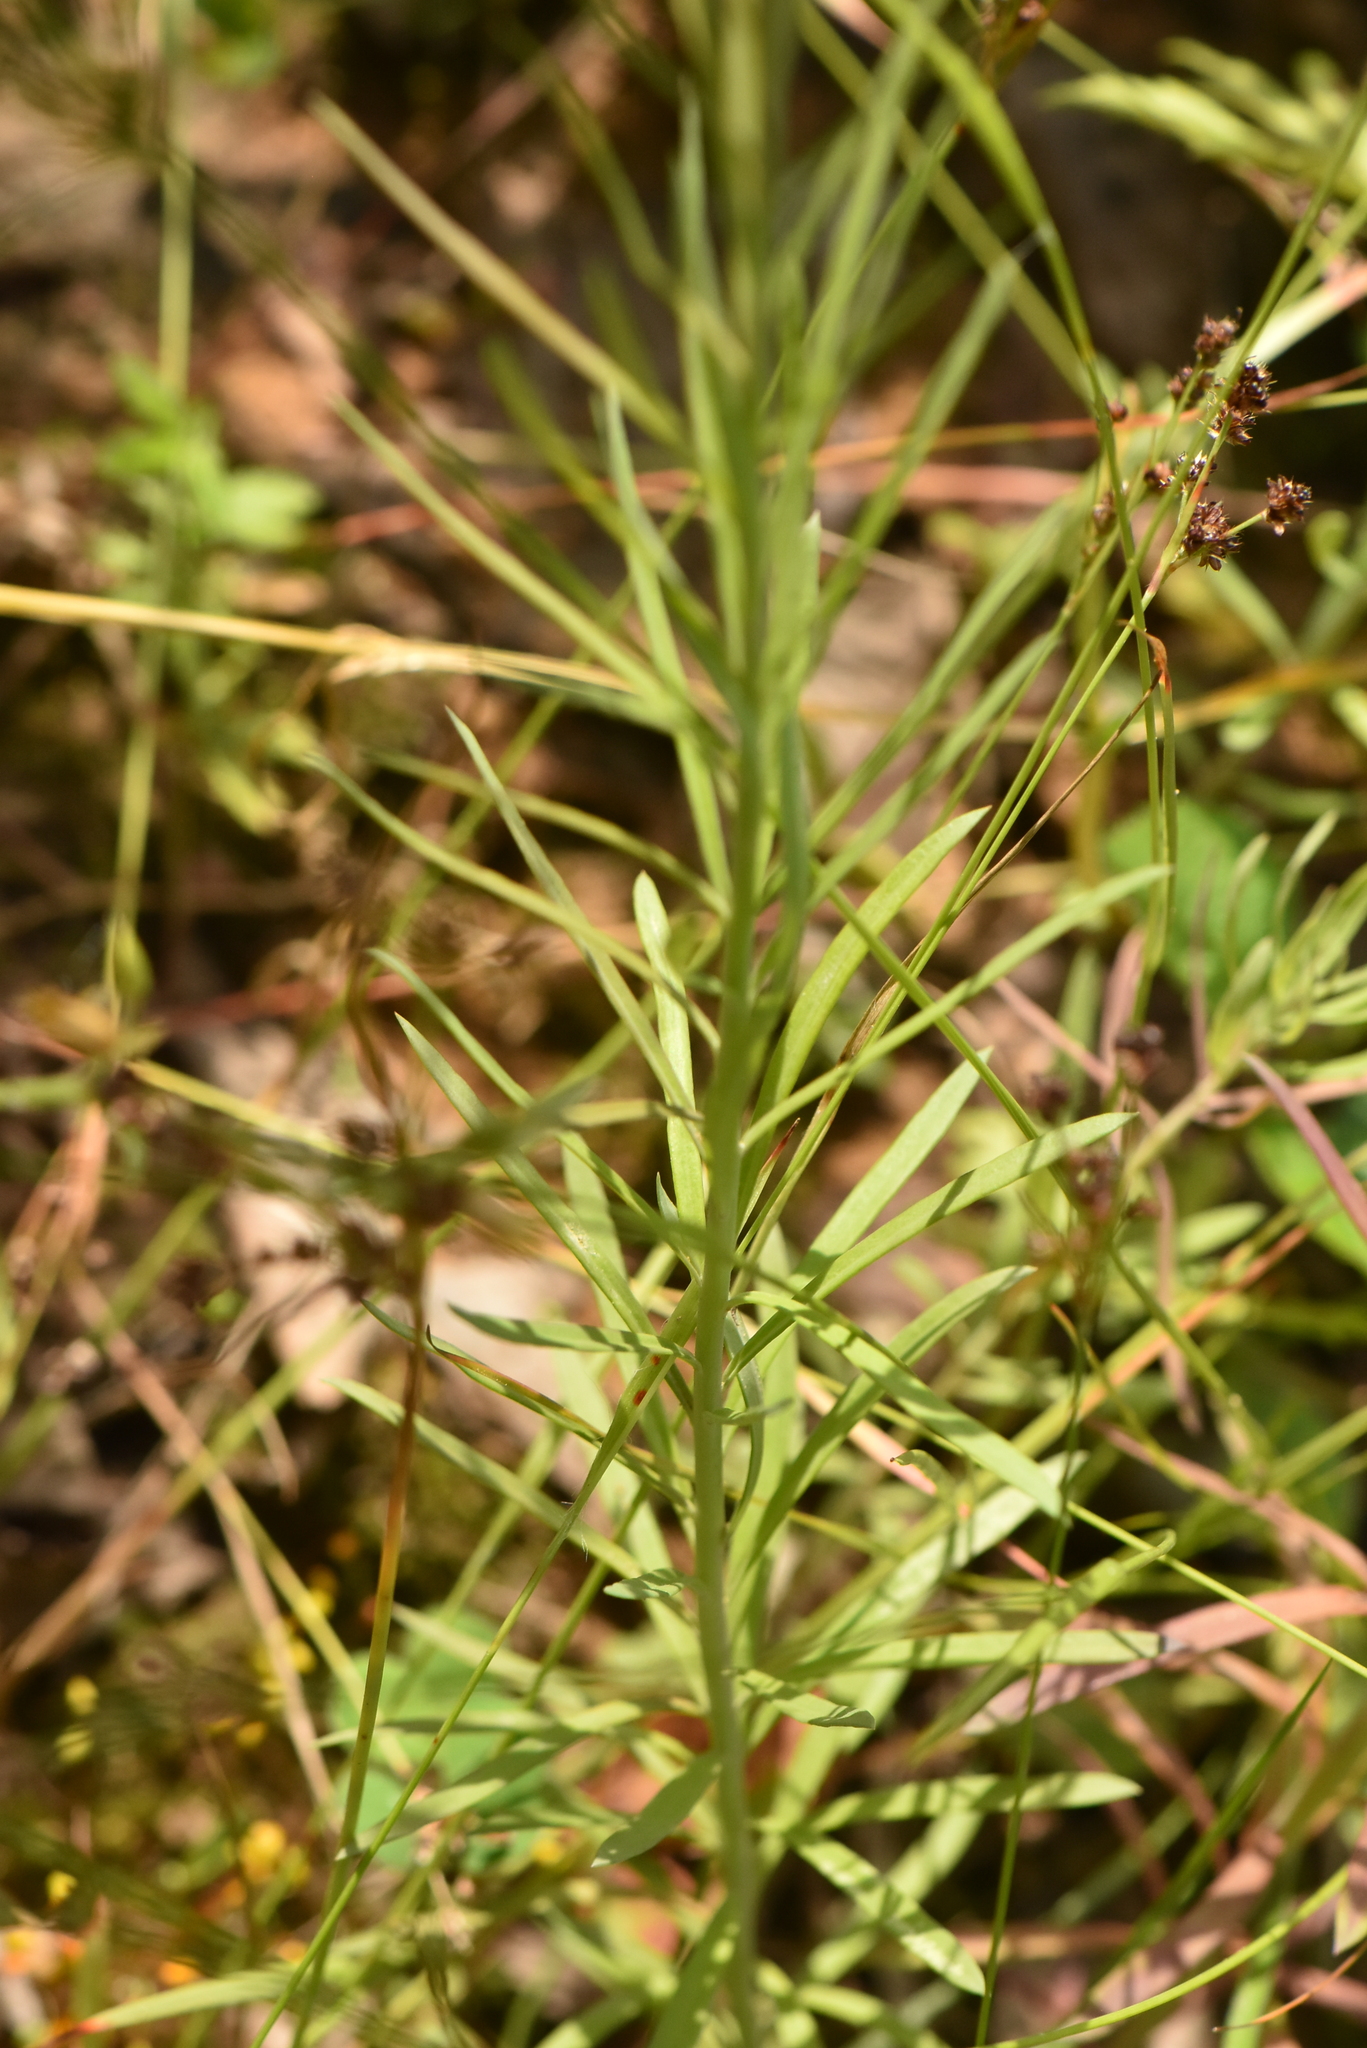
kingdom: Plantae
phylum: Tracheophyta
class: Magnoliopsida
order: Lamiales
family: Plantaginaceae
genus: Linaria
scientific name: Linaria vulgaris
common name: Butter and eggs
